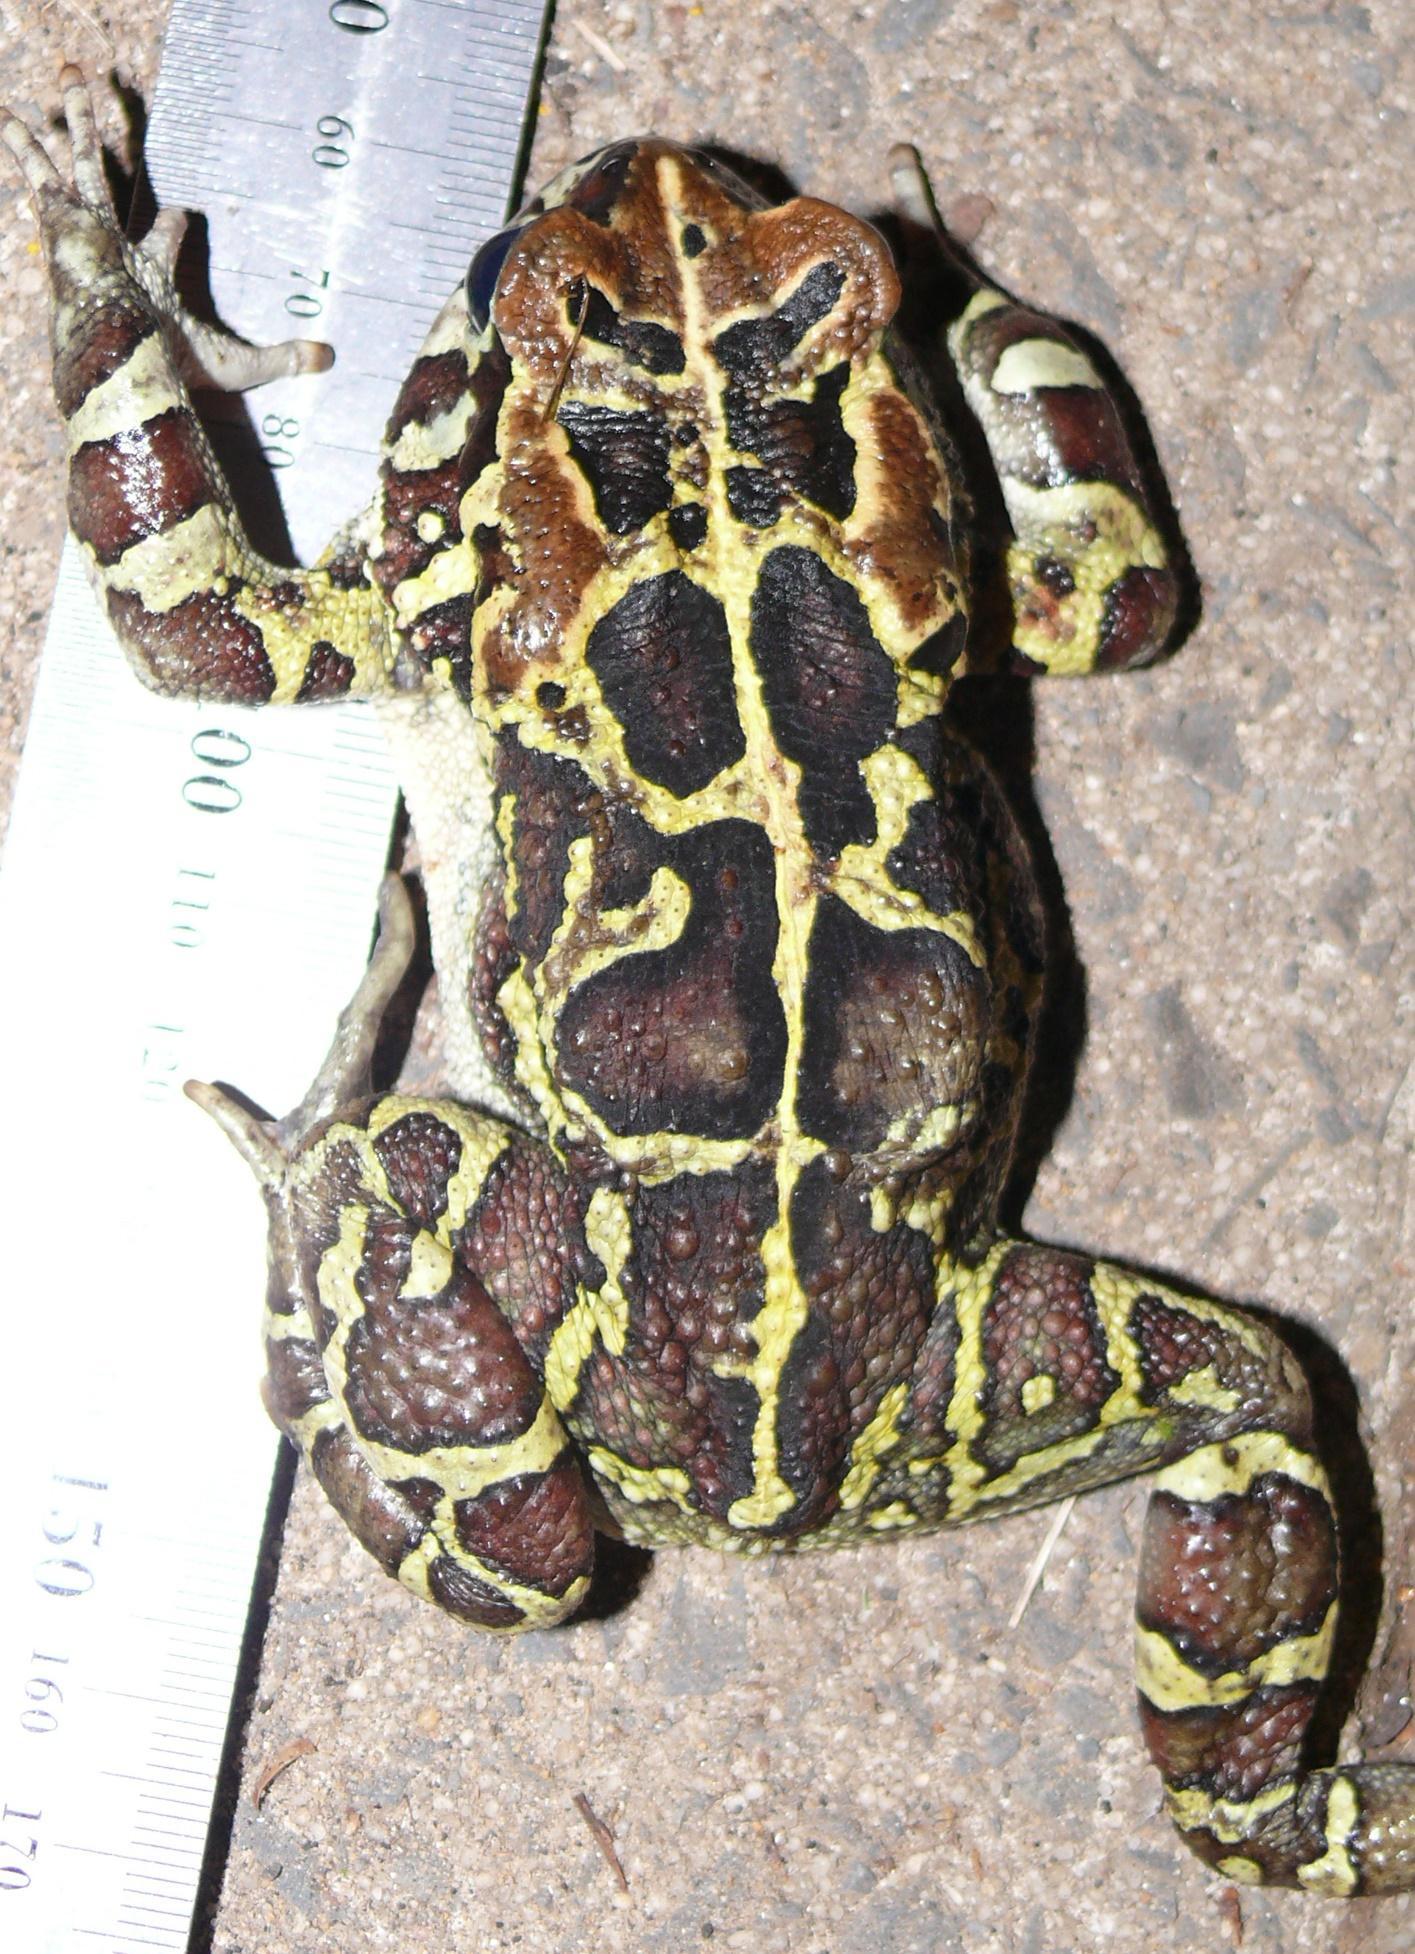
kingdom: Animalia
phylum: Chordata
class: Amphibia
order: Anura
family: Bufonidae
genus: Sclerophrys
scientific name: Sclerophrys pantherina
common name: Panther toad
